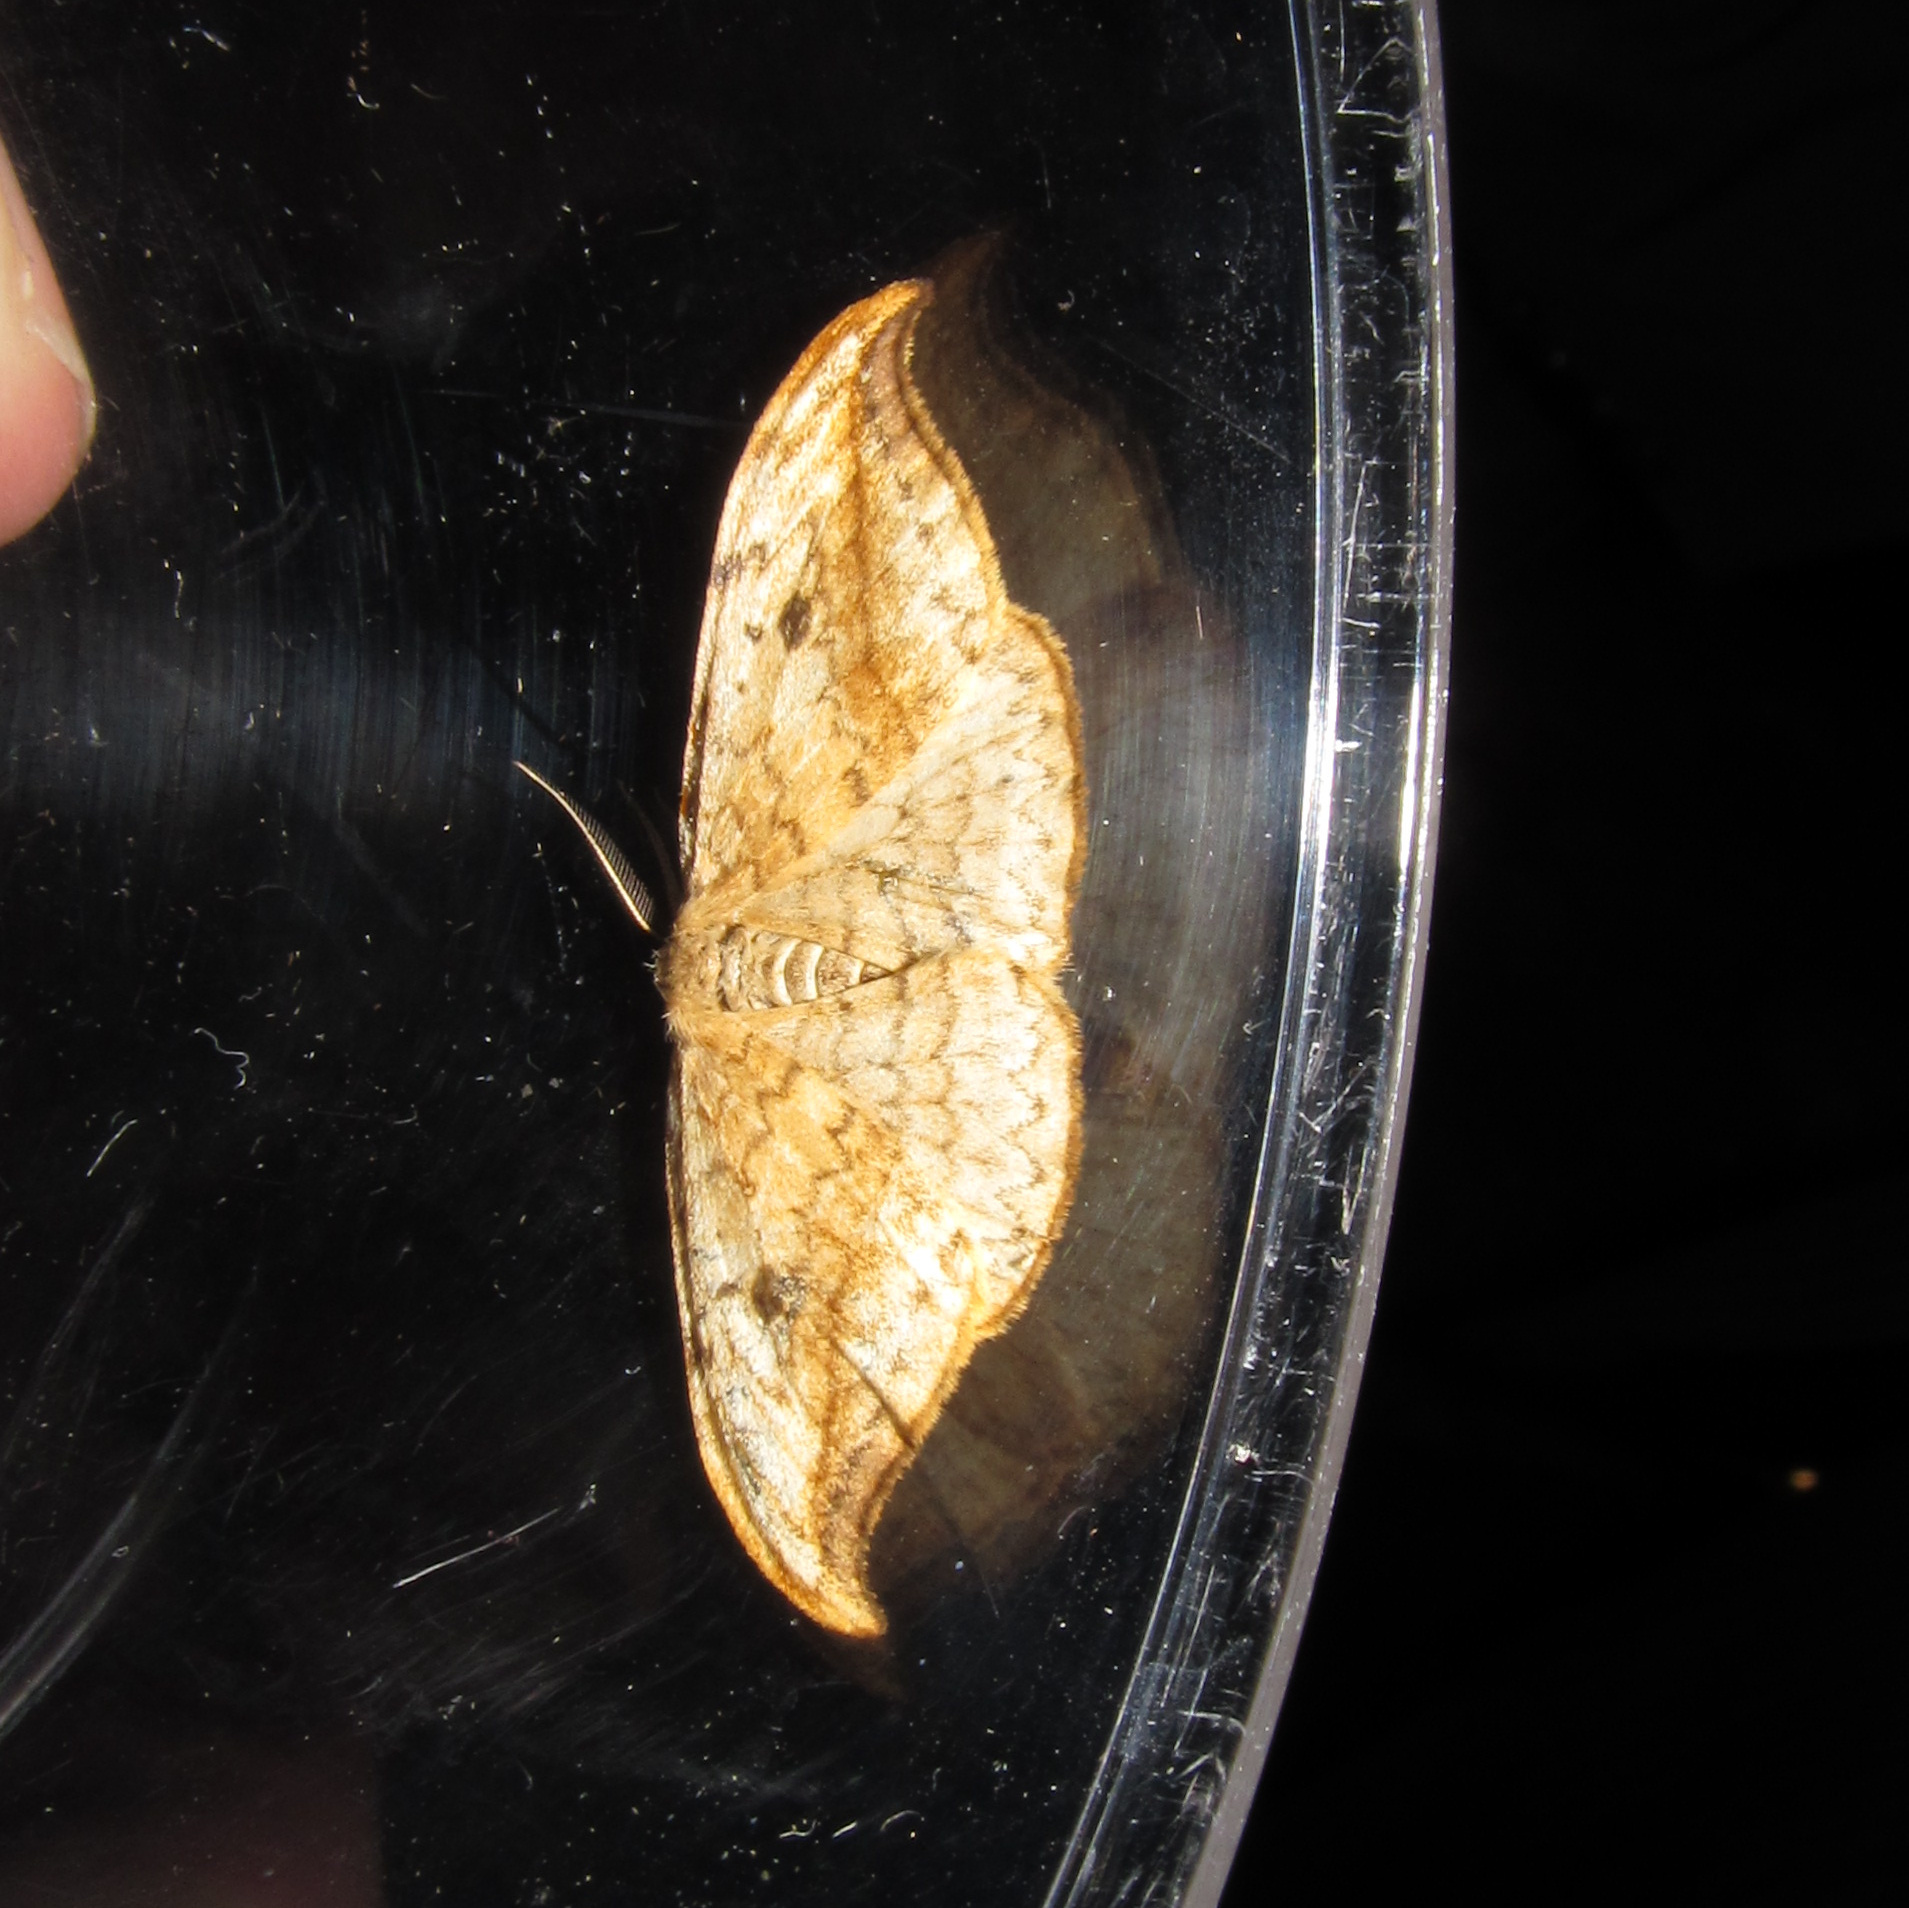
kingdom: Animalia
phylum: Arthropoda
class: Insecta
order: Lepidoptera
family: Drepanidae
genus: Drepana
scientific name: Drepana falcataria
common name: Pebble hook-tip
